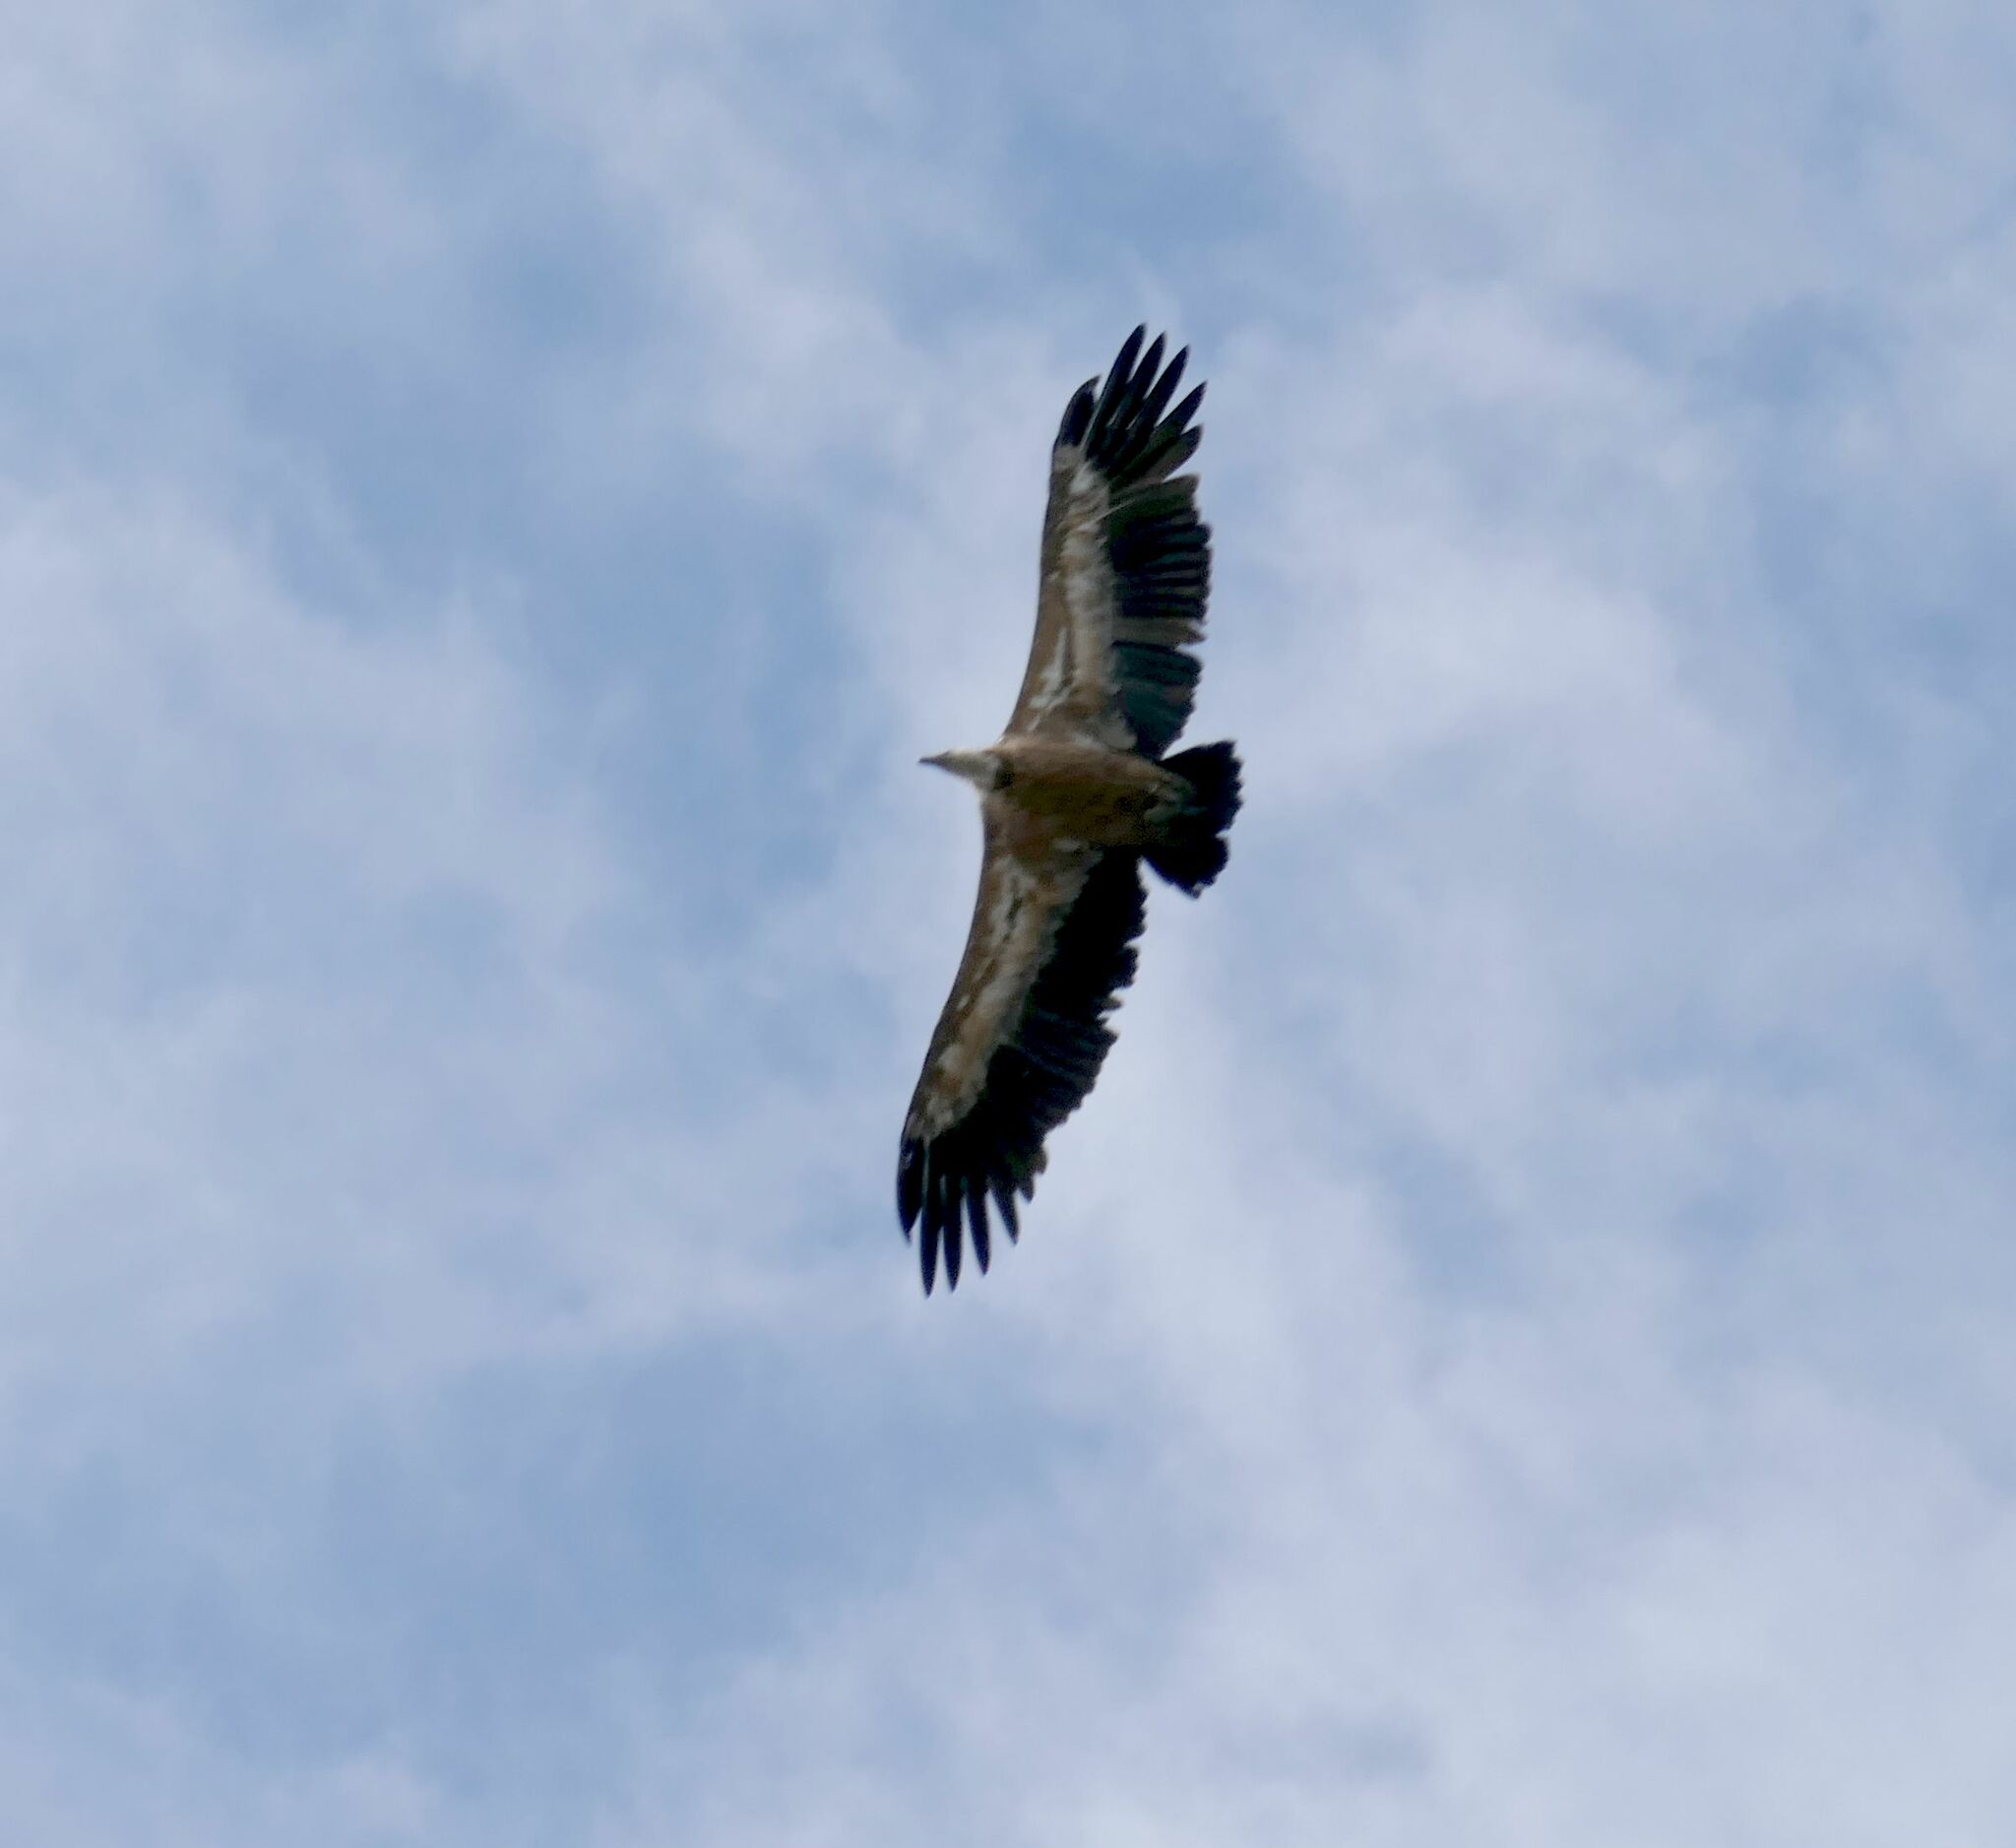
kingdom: Animalia
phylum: Chordata
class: Aves
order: Accipitriformes
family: Accipitridae
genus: Gyps
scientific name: Gyps fulvus
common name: Griffon vulture
